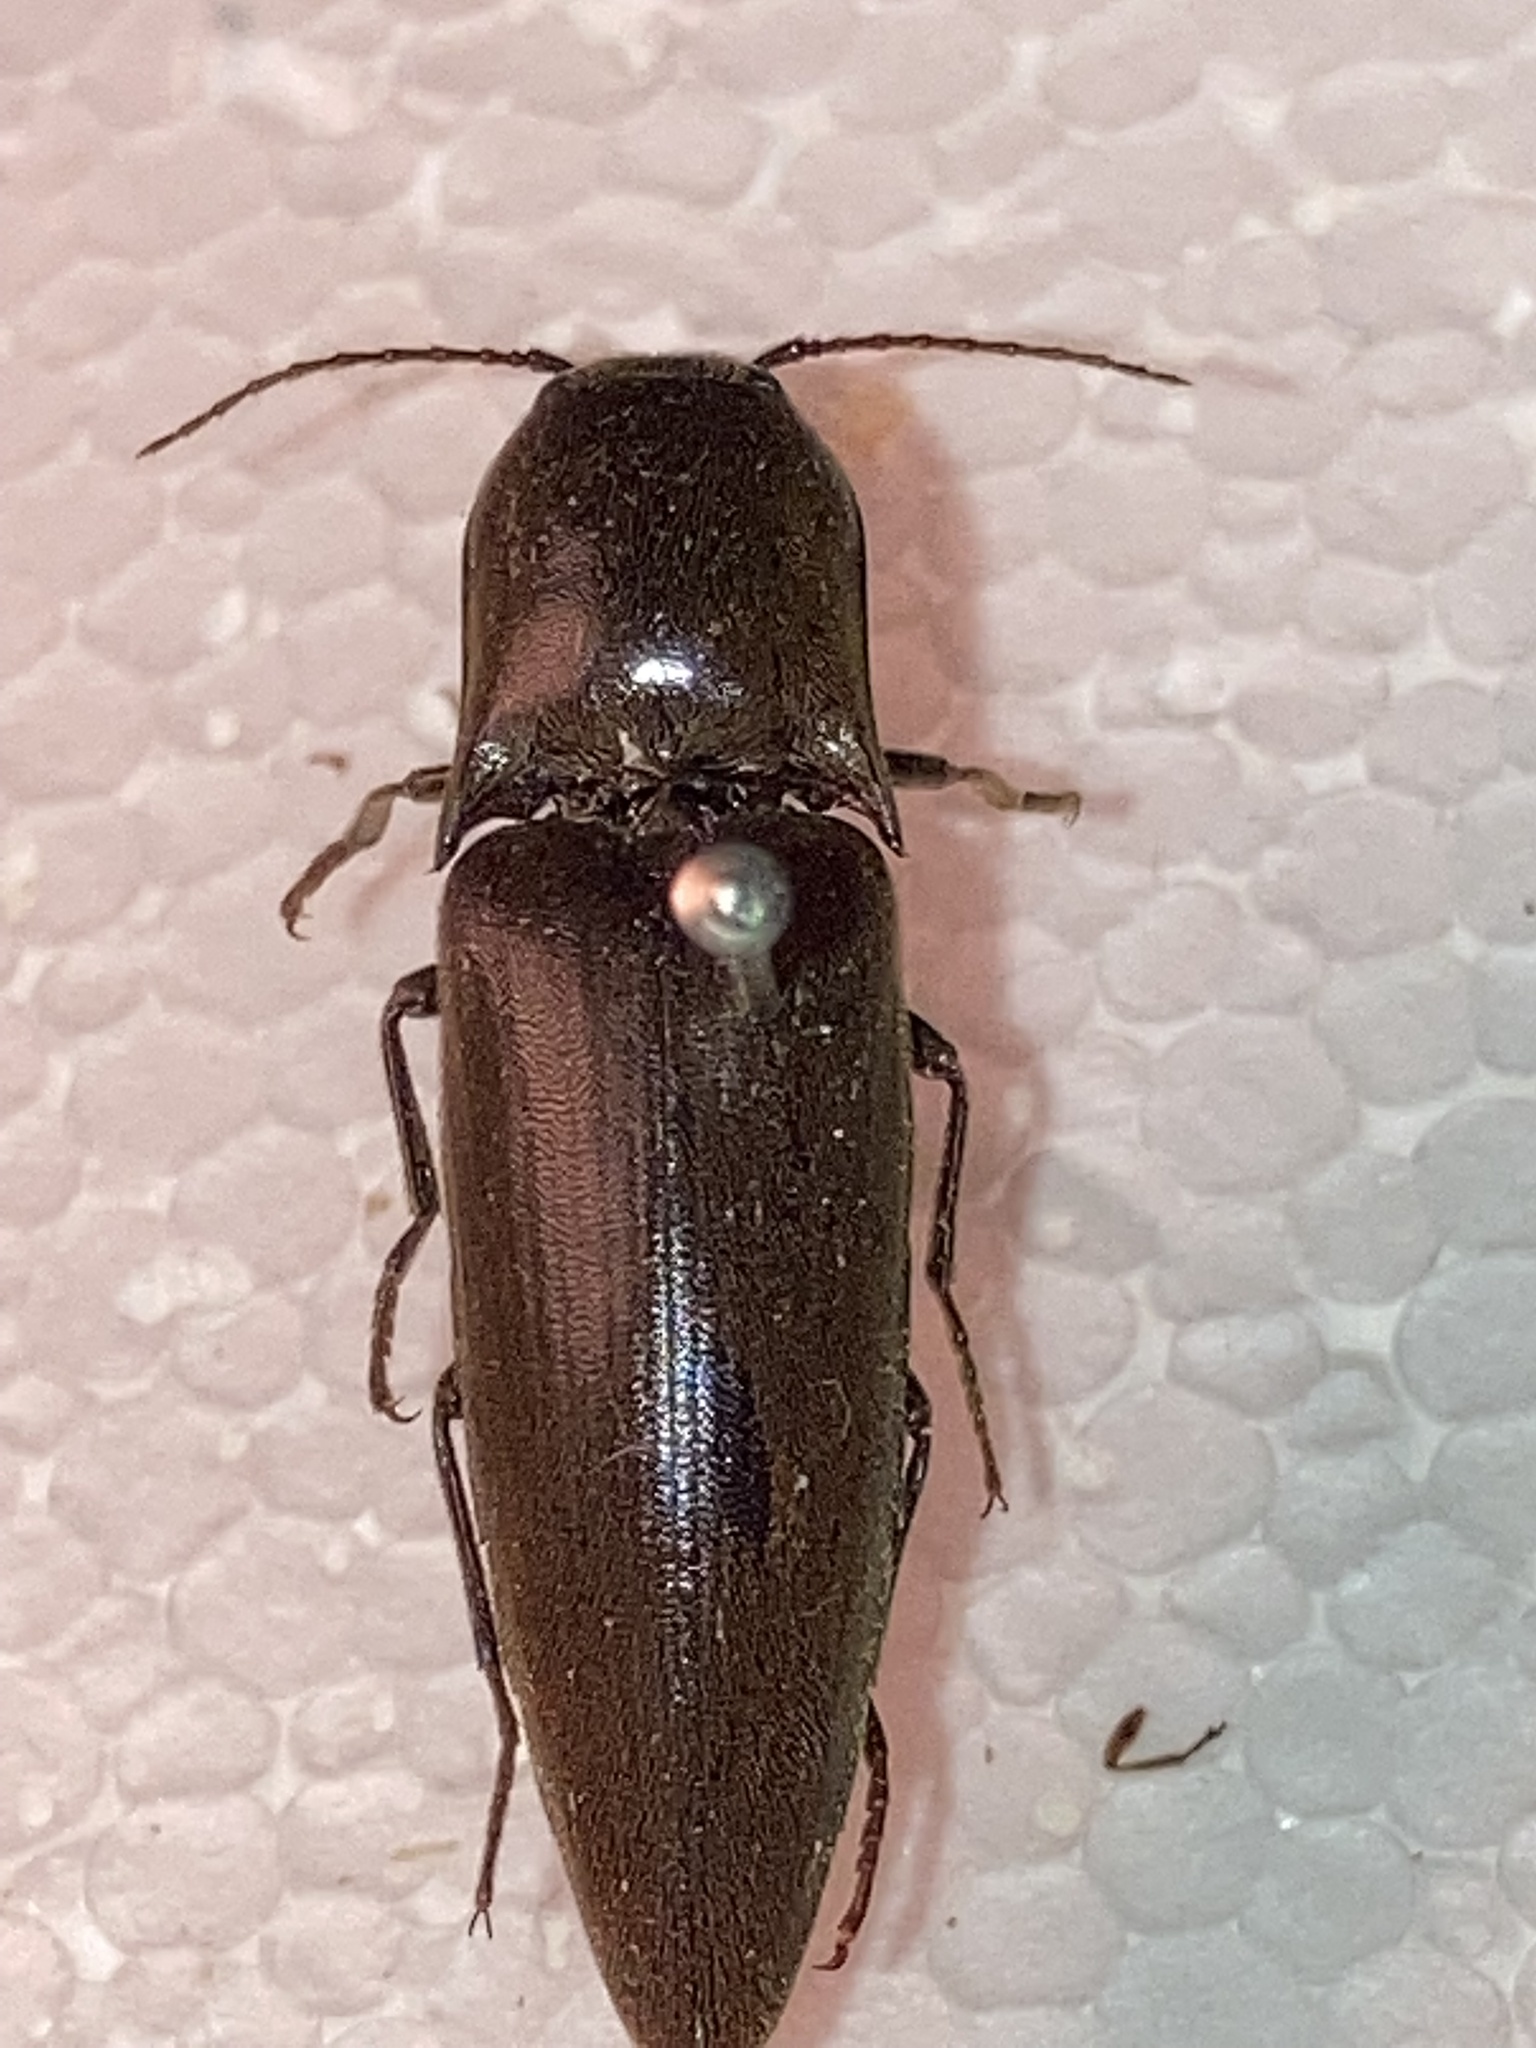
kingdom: Animalia
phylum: Arthropoda
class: Insecta
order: Coleoptera
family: Elateridae
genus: Orthostethus
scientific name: Orthostethus infuscatus
